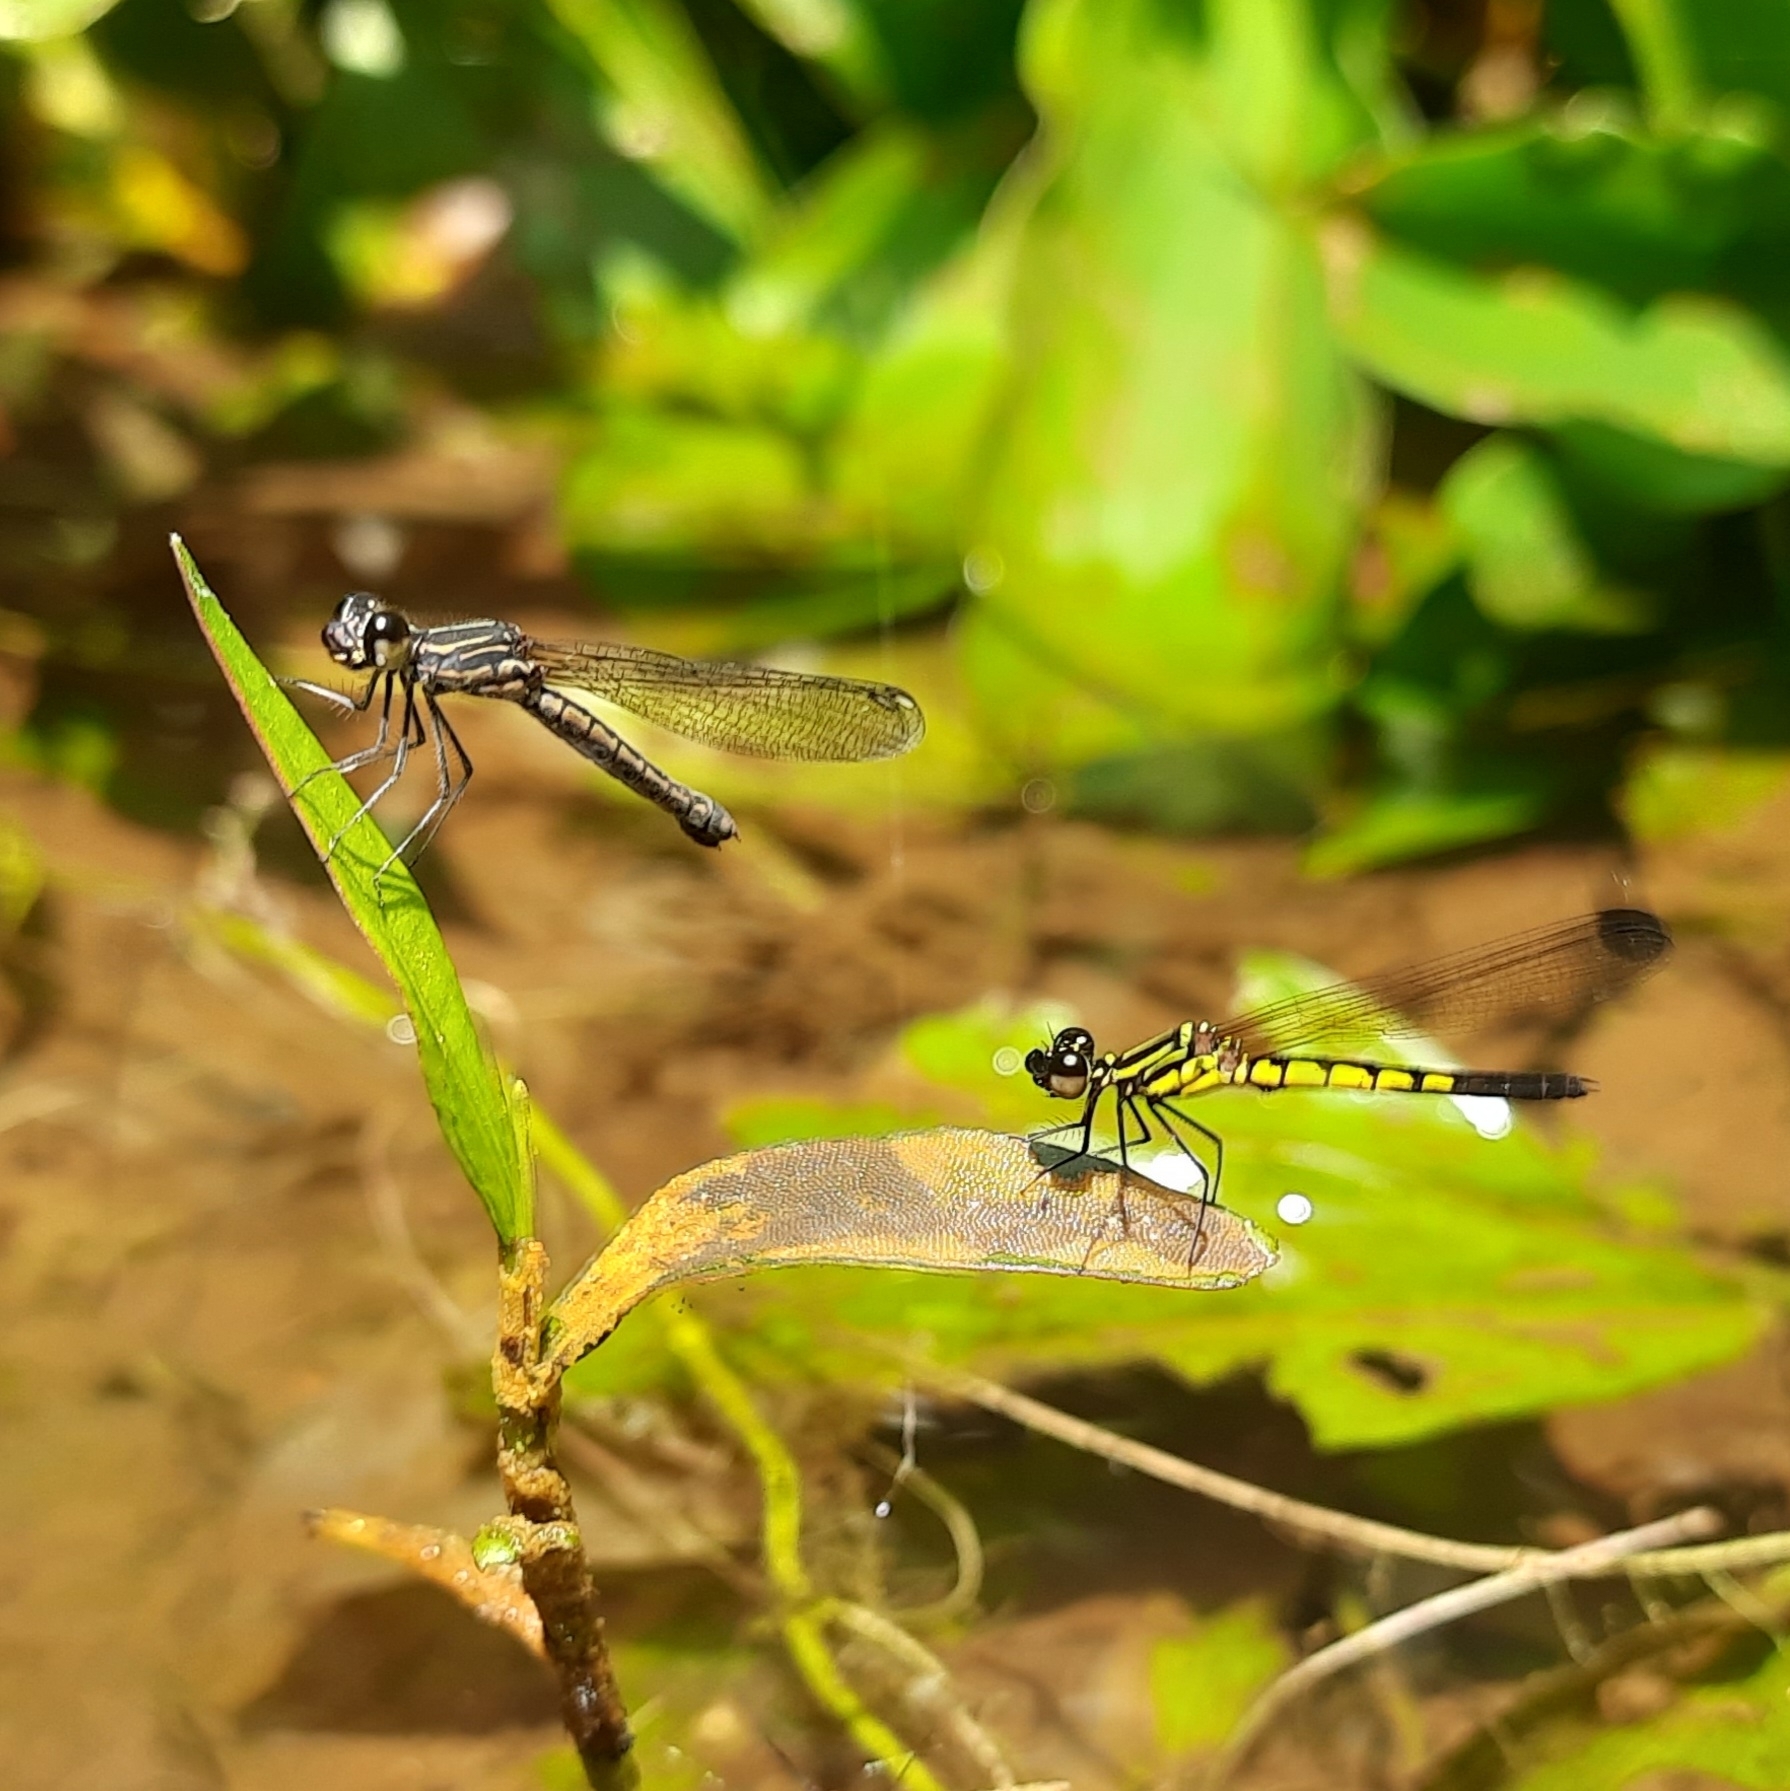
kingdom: Animalia
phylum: Arthropoda
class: Insecta
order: Odonata
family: Chlorocyphidae
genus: Libellago
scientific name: Libellago indica
